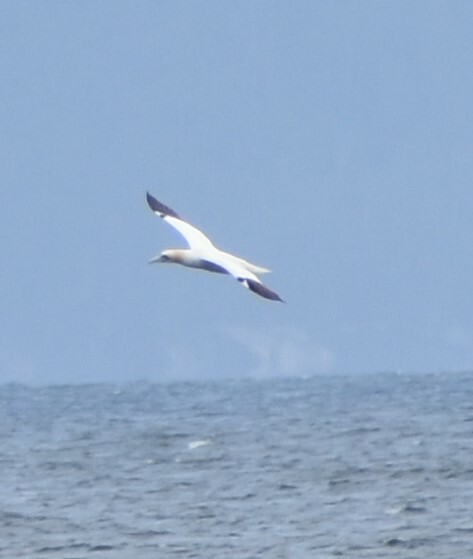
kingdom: Animalia
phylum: Chordata
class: Aves
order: Suliformes
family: Sulidae
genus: Morus
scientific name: Morus bassanus
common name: Northern gannet
